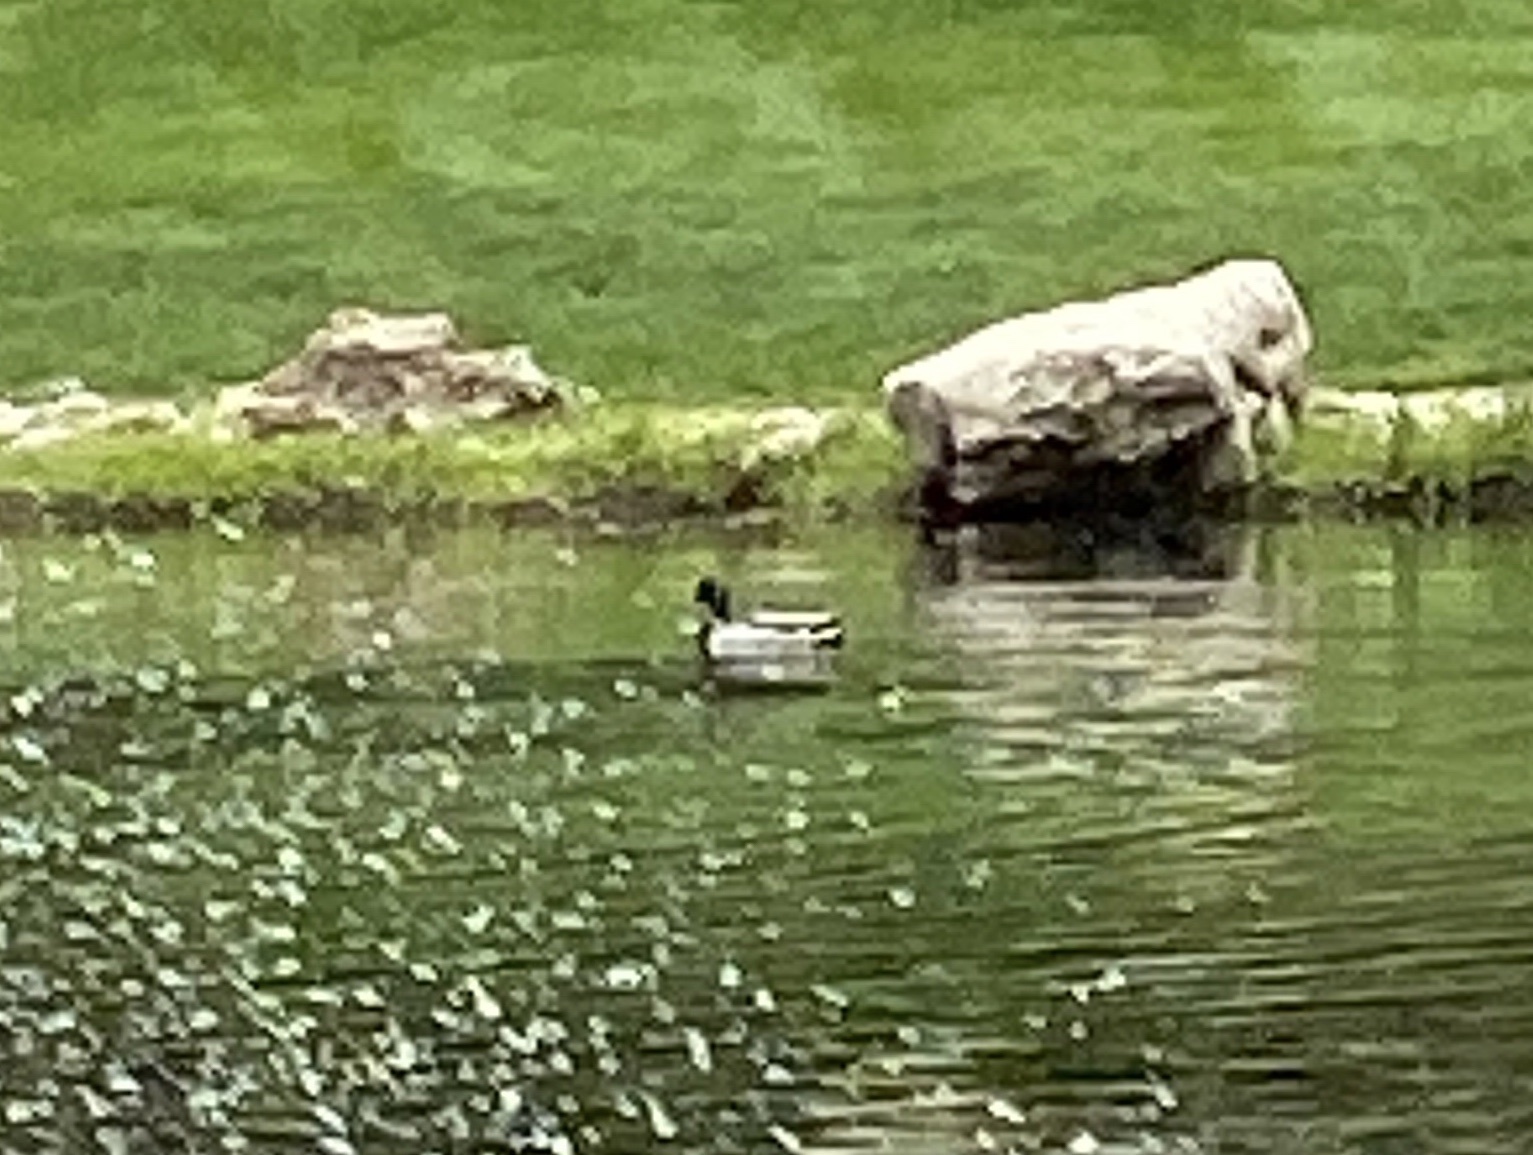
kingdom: Animalia
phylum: Chordata
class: Aves
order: Anseriformes
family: Anatidae
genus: Anas
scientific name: Anas platyrhynchos
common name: Mallard
